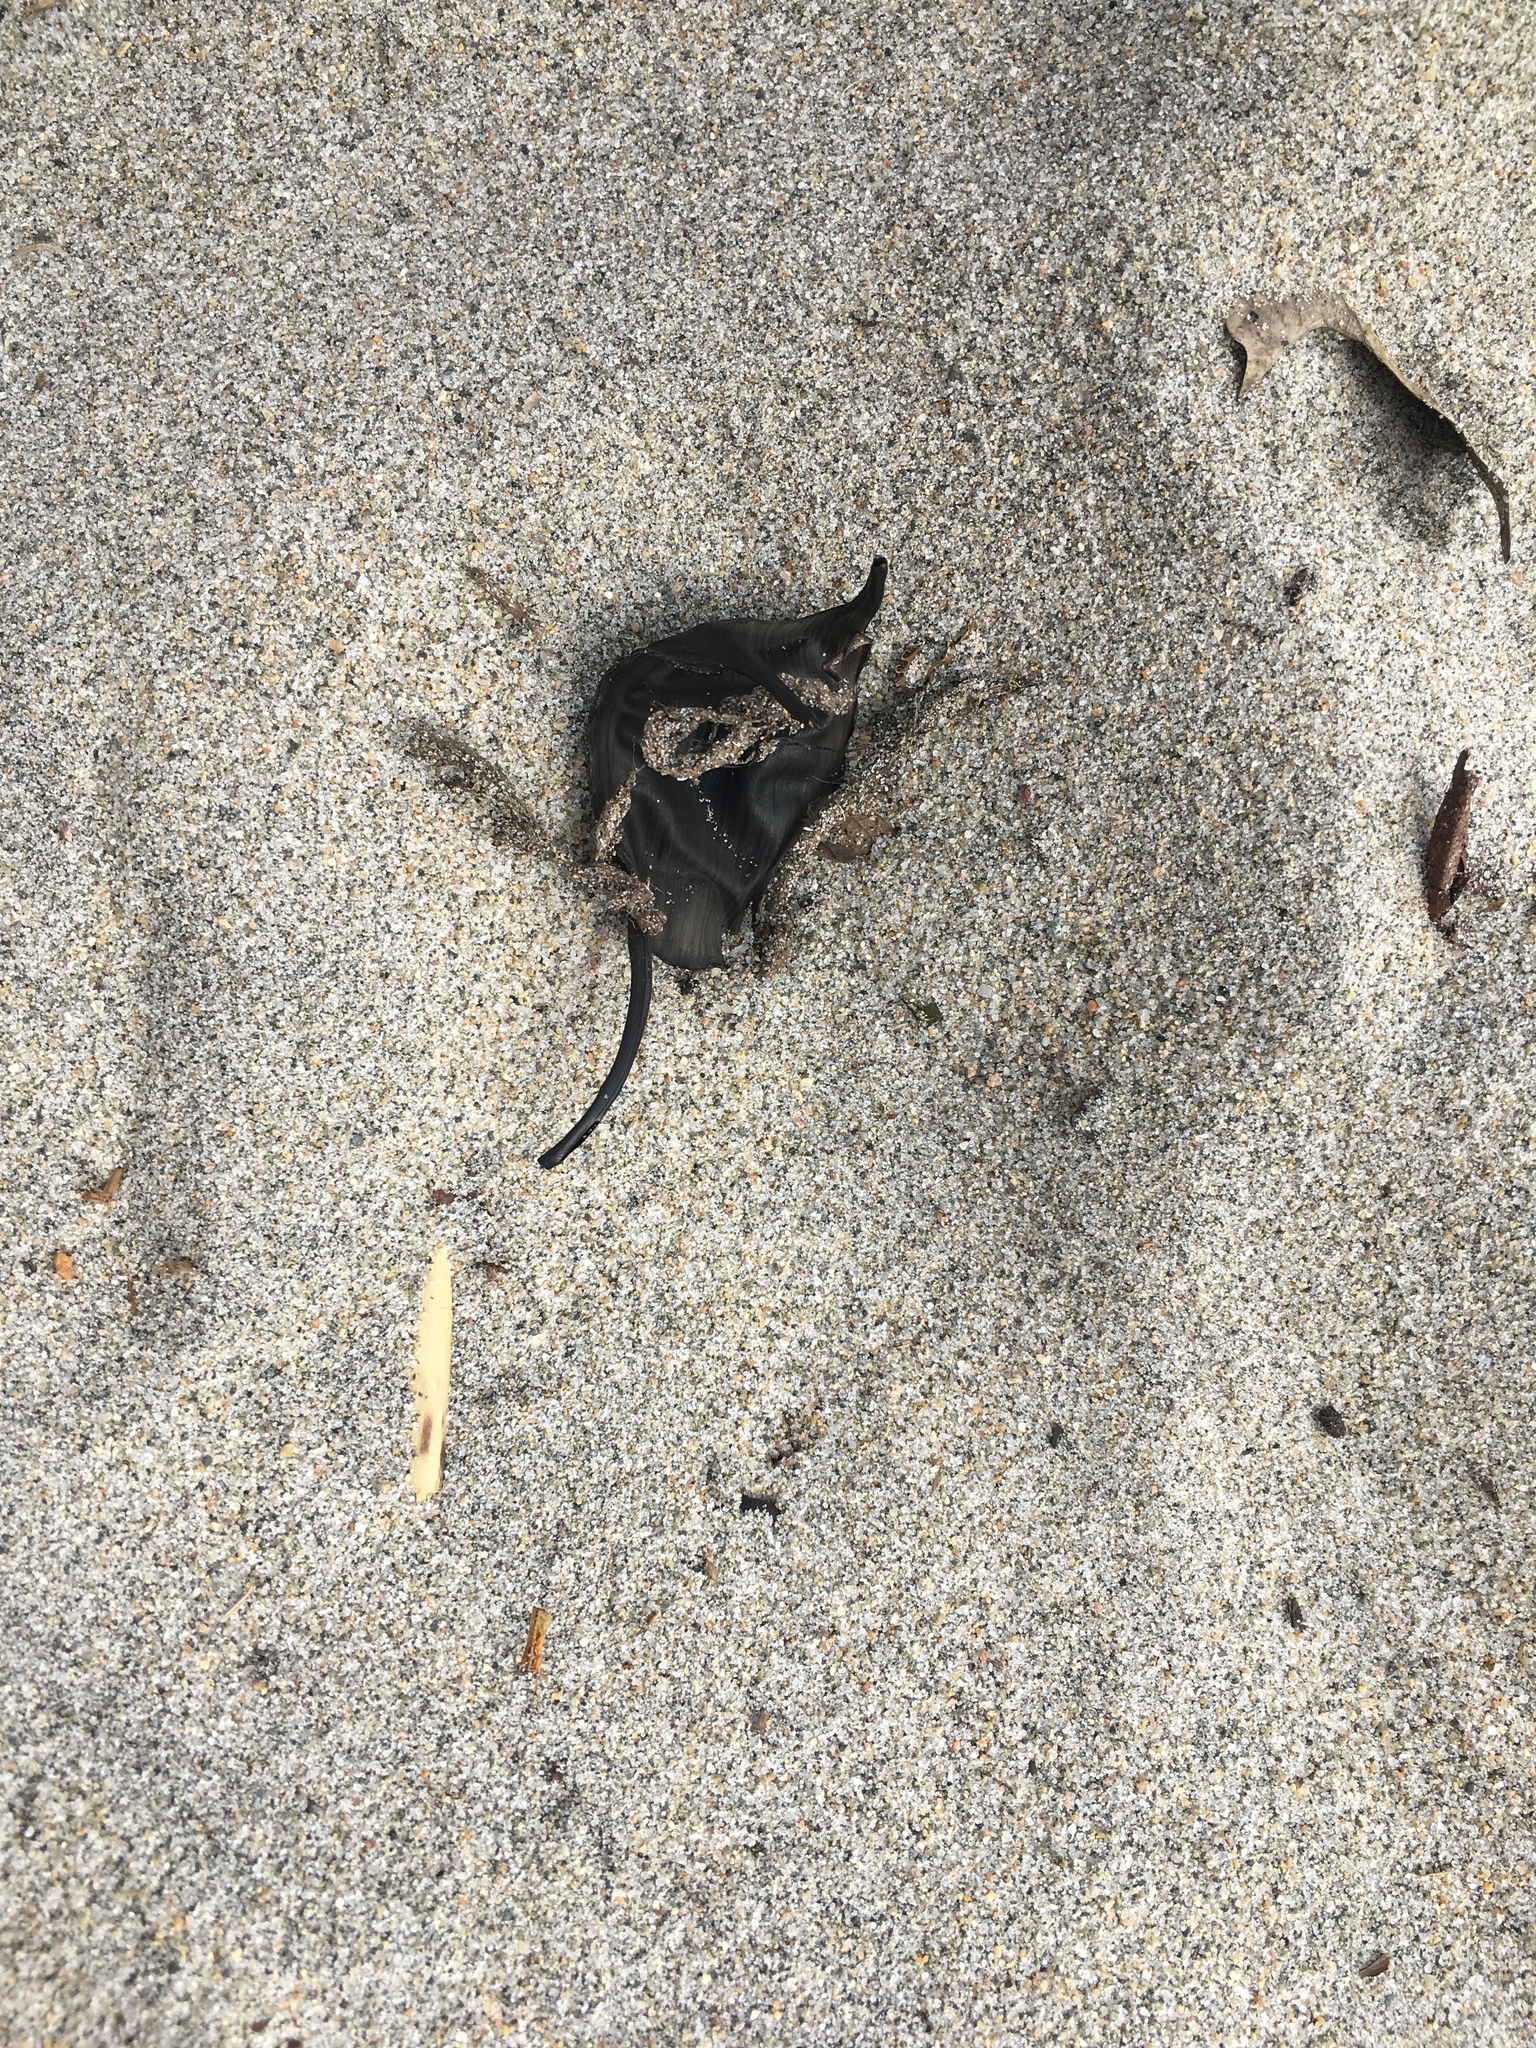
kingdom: Animalia
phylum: Chordata
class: Elasmobranchii
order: Rajiformes
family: Rajidae
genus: Leucoraja
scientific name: Leucoraja erinacea
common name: Little skate
